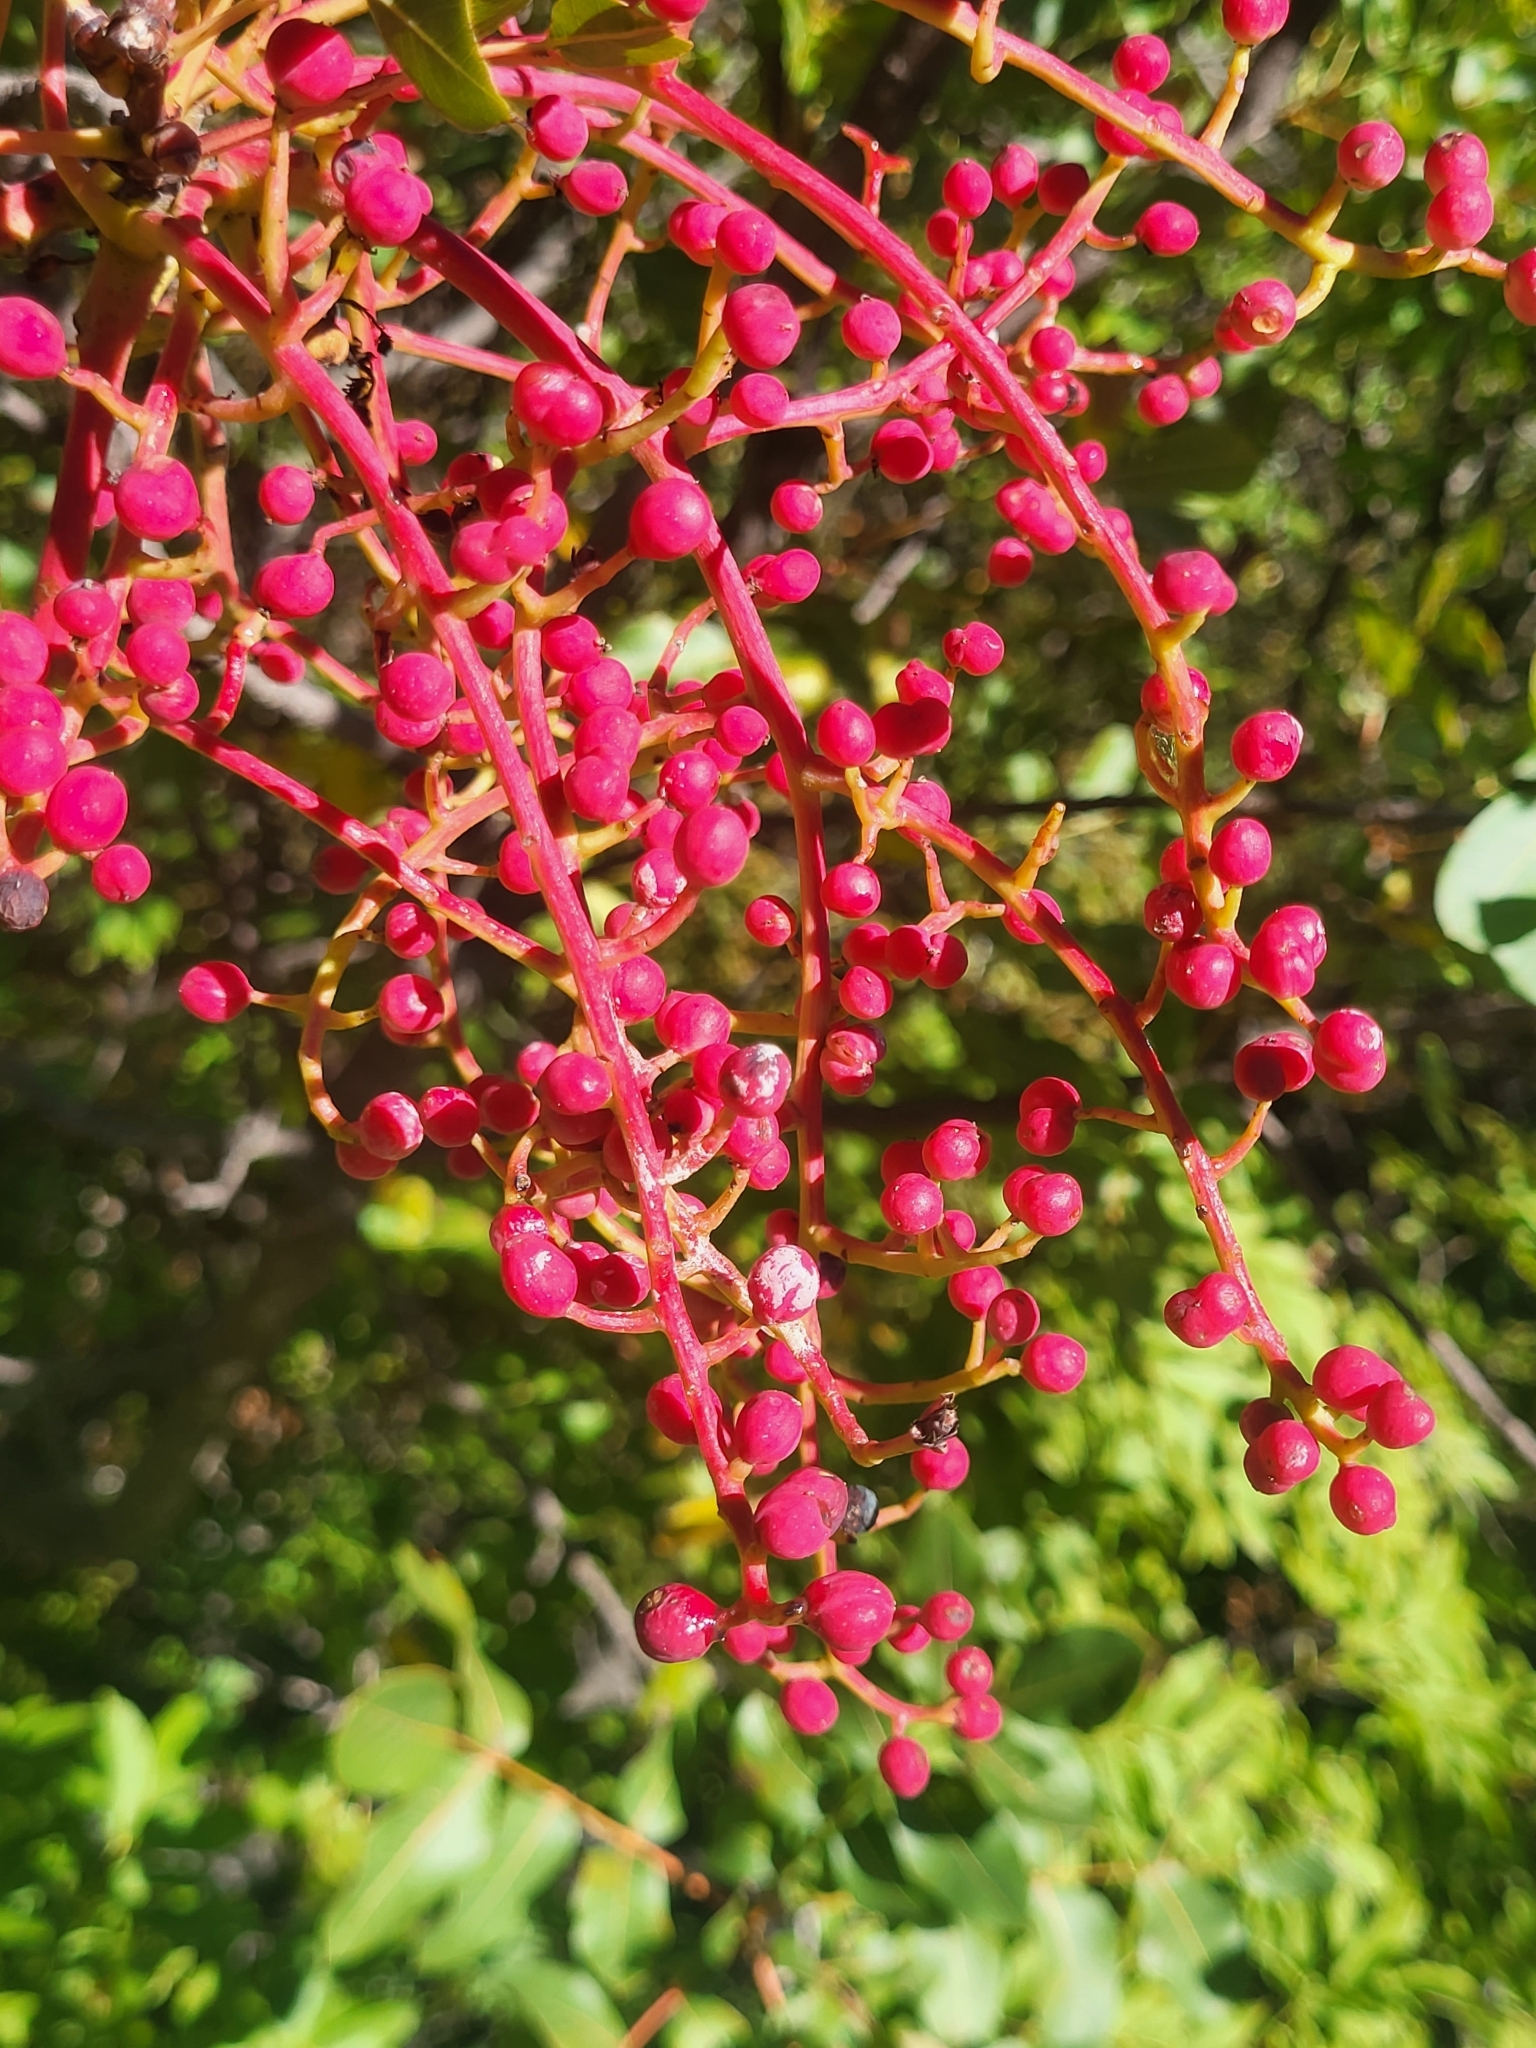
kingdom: Plantae
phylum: Tracheophyta
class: Magnoliopsida
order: Sapindales
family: Anacardiaceae
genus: Pistacia
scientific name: Pistacia terebinthus
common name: Terebinth
